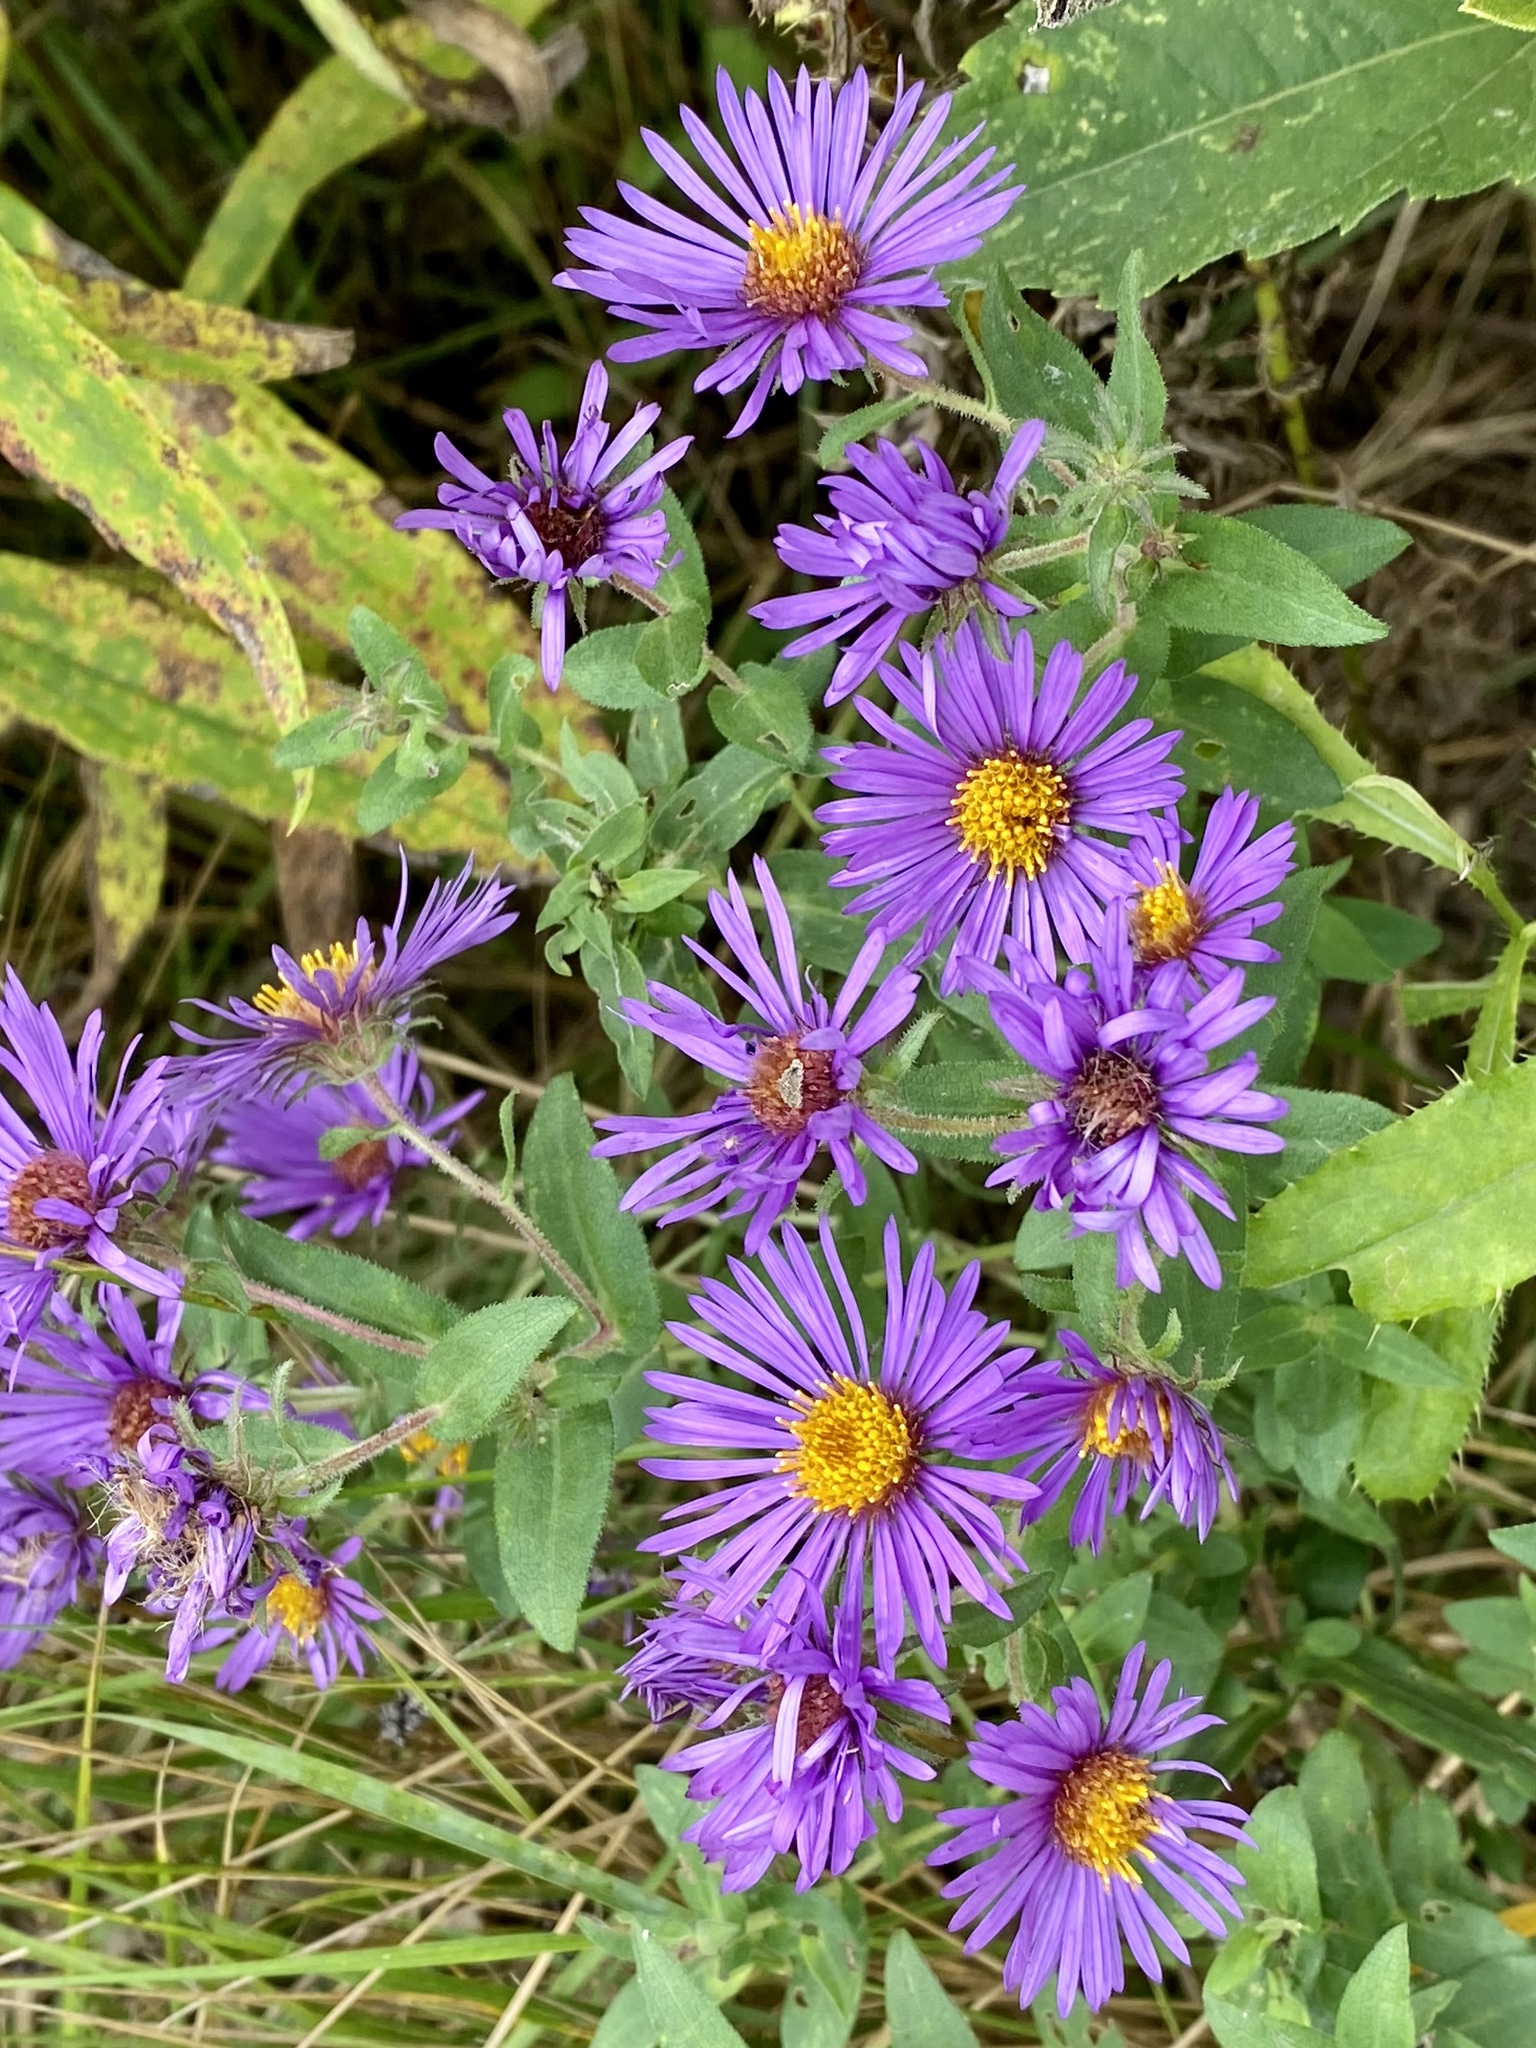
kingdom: Plantae
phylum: Tracheophyta
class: Magnoliopsida
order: Asterales
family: Asteraceae
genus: Symphyotrichum
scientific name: Symphyotrichum novae-angliae
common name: Michaelmas daisy
